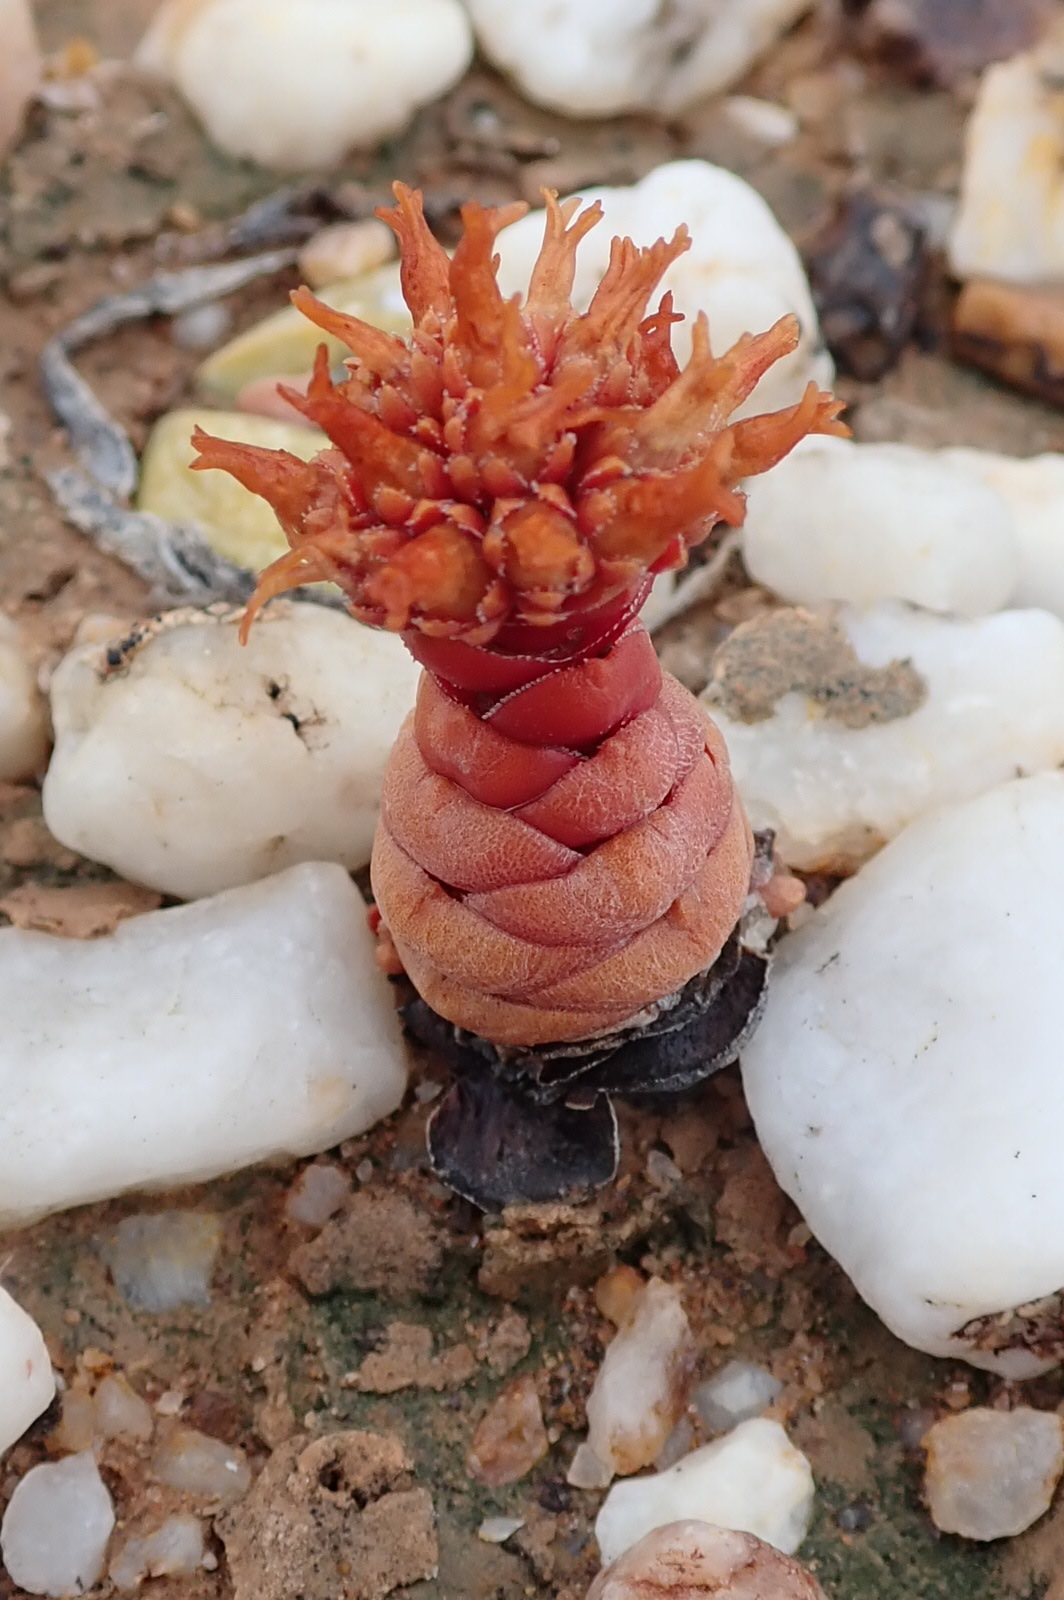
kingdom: Plantae
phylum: Tracheophyta
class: Magnoliopsida
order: Saxifragales
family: Crassulaceae
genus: Crassula
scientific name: Crassula columnaris
